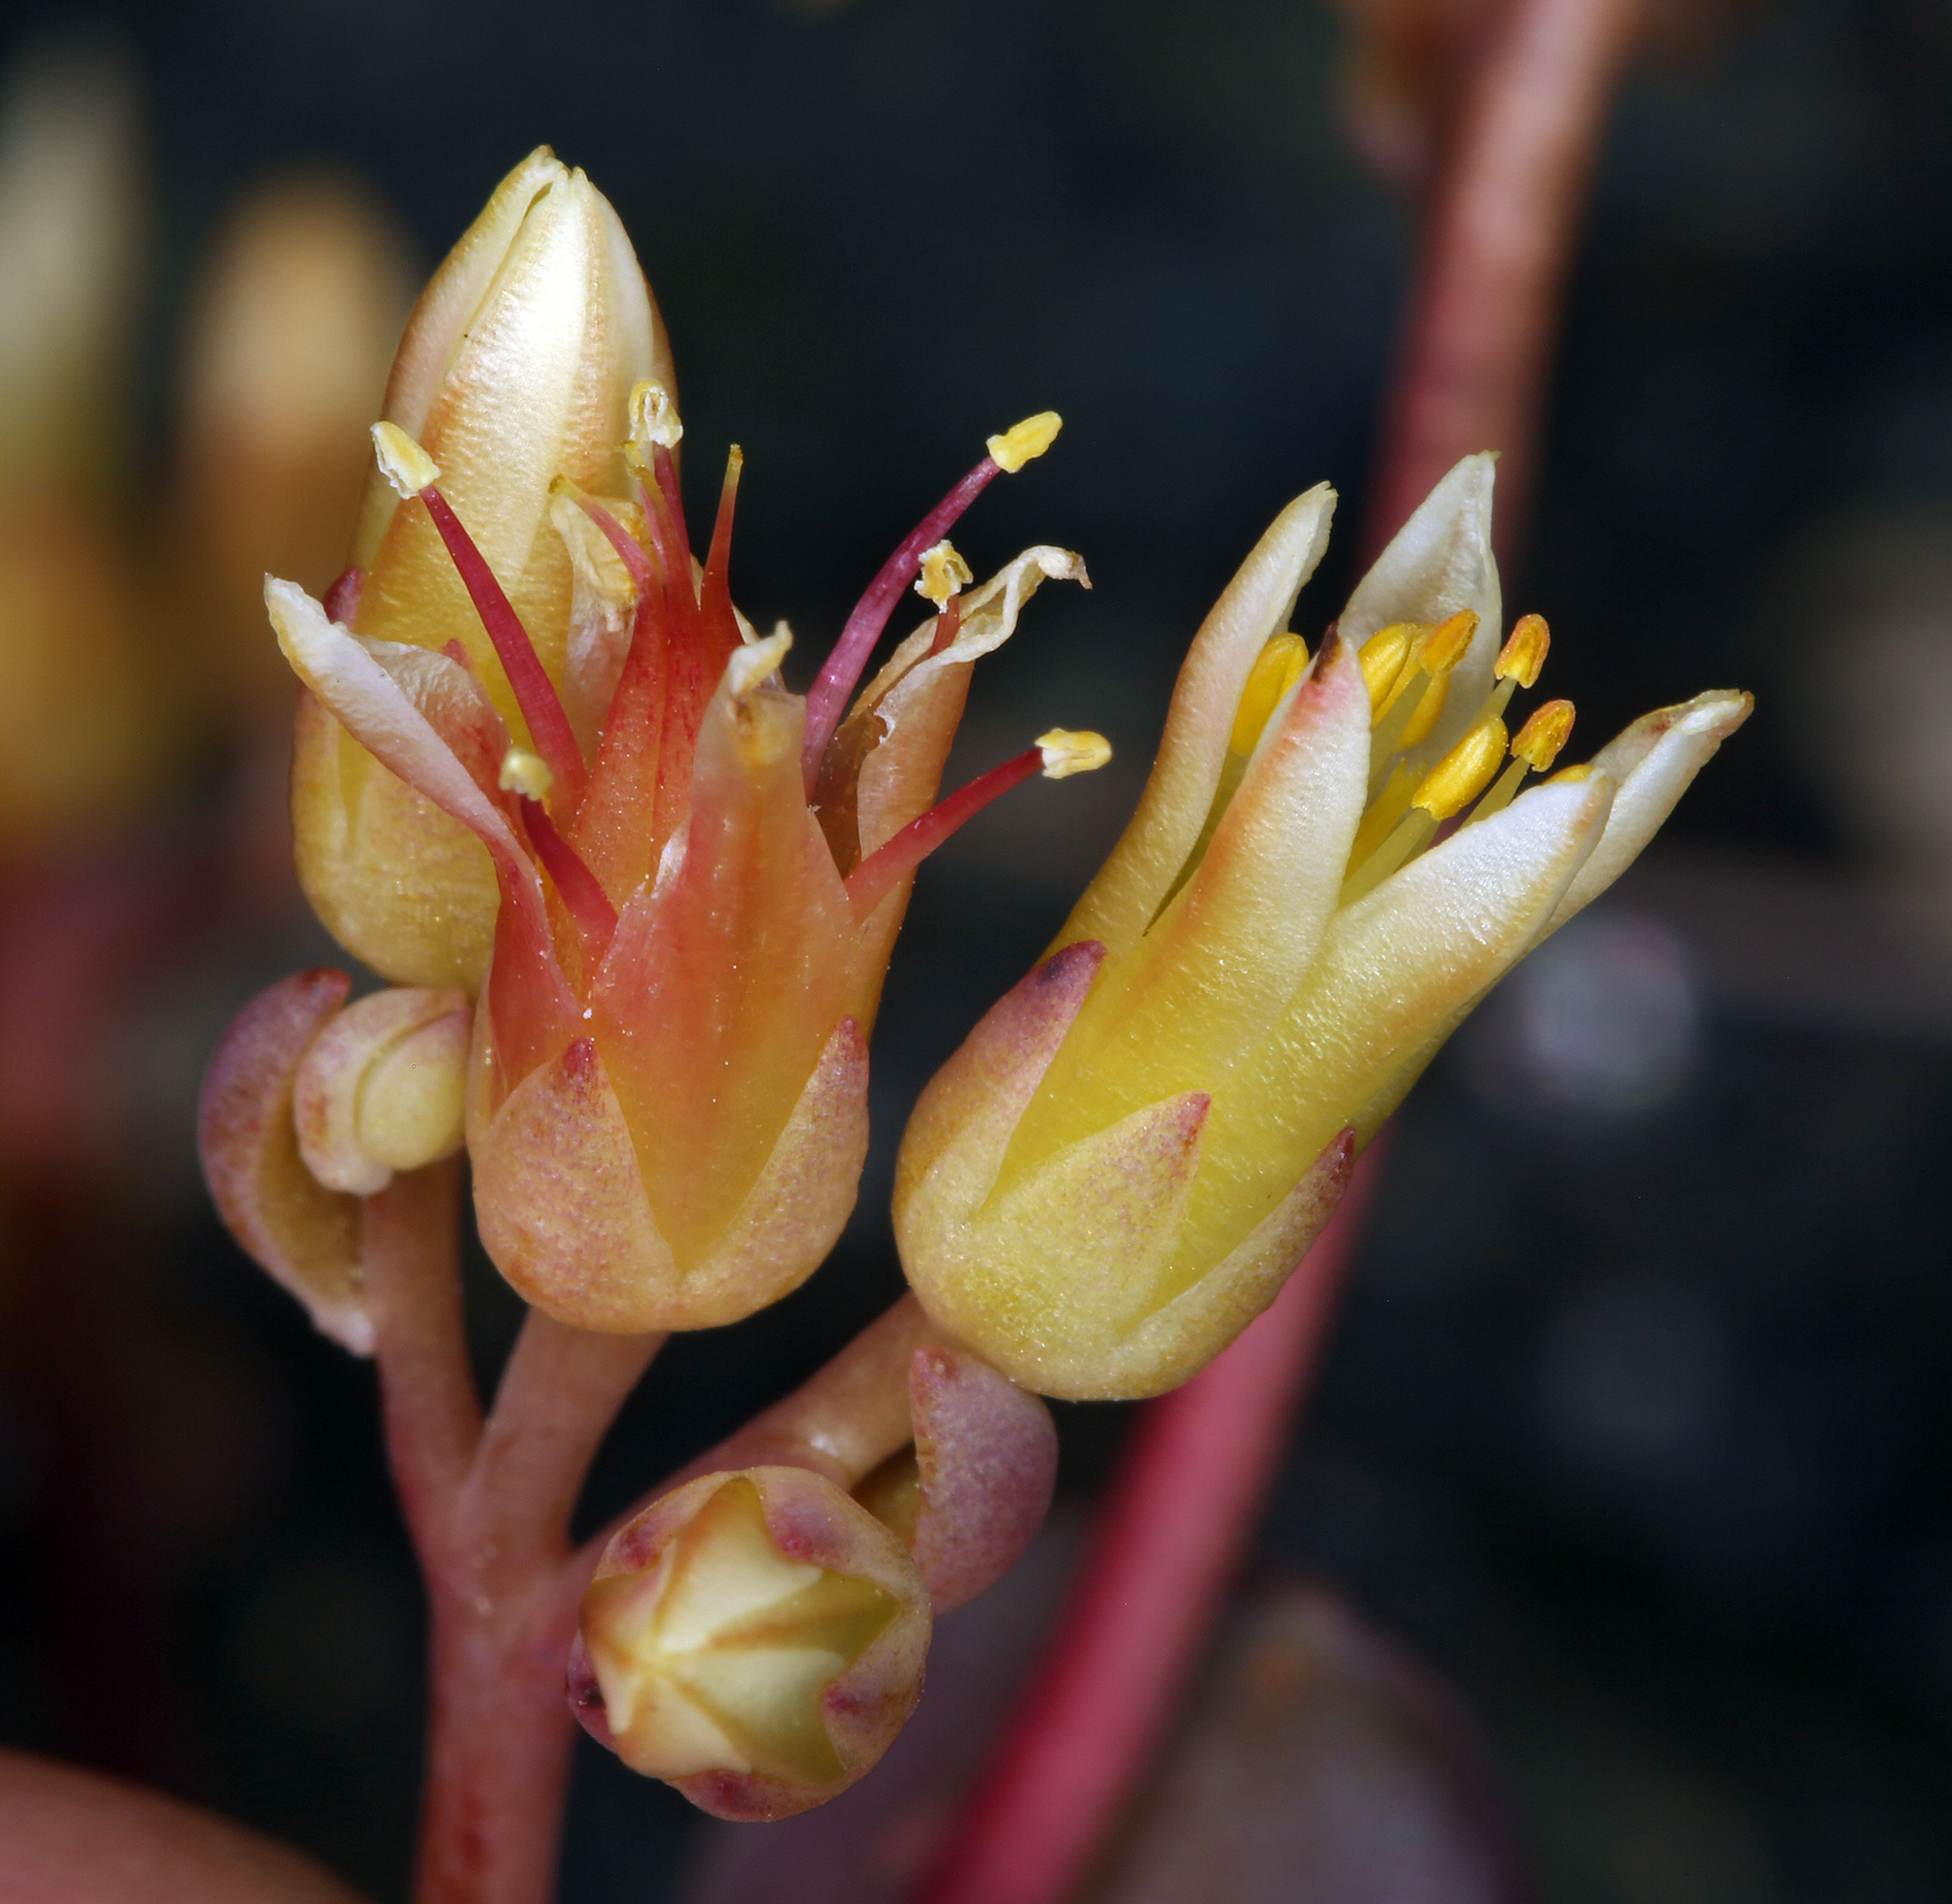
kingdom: Plantae
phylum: Tracheophyta
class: Magnoliopsida
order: Saxifragales
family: Crassulaceae
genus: Sedum
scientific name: Sedum flavidum
